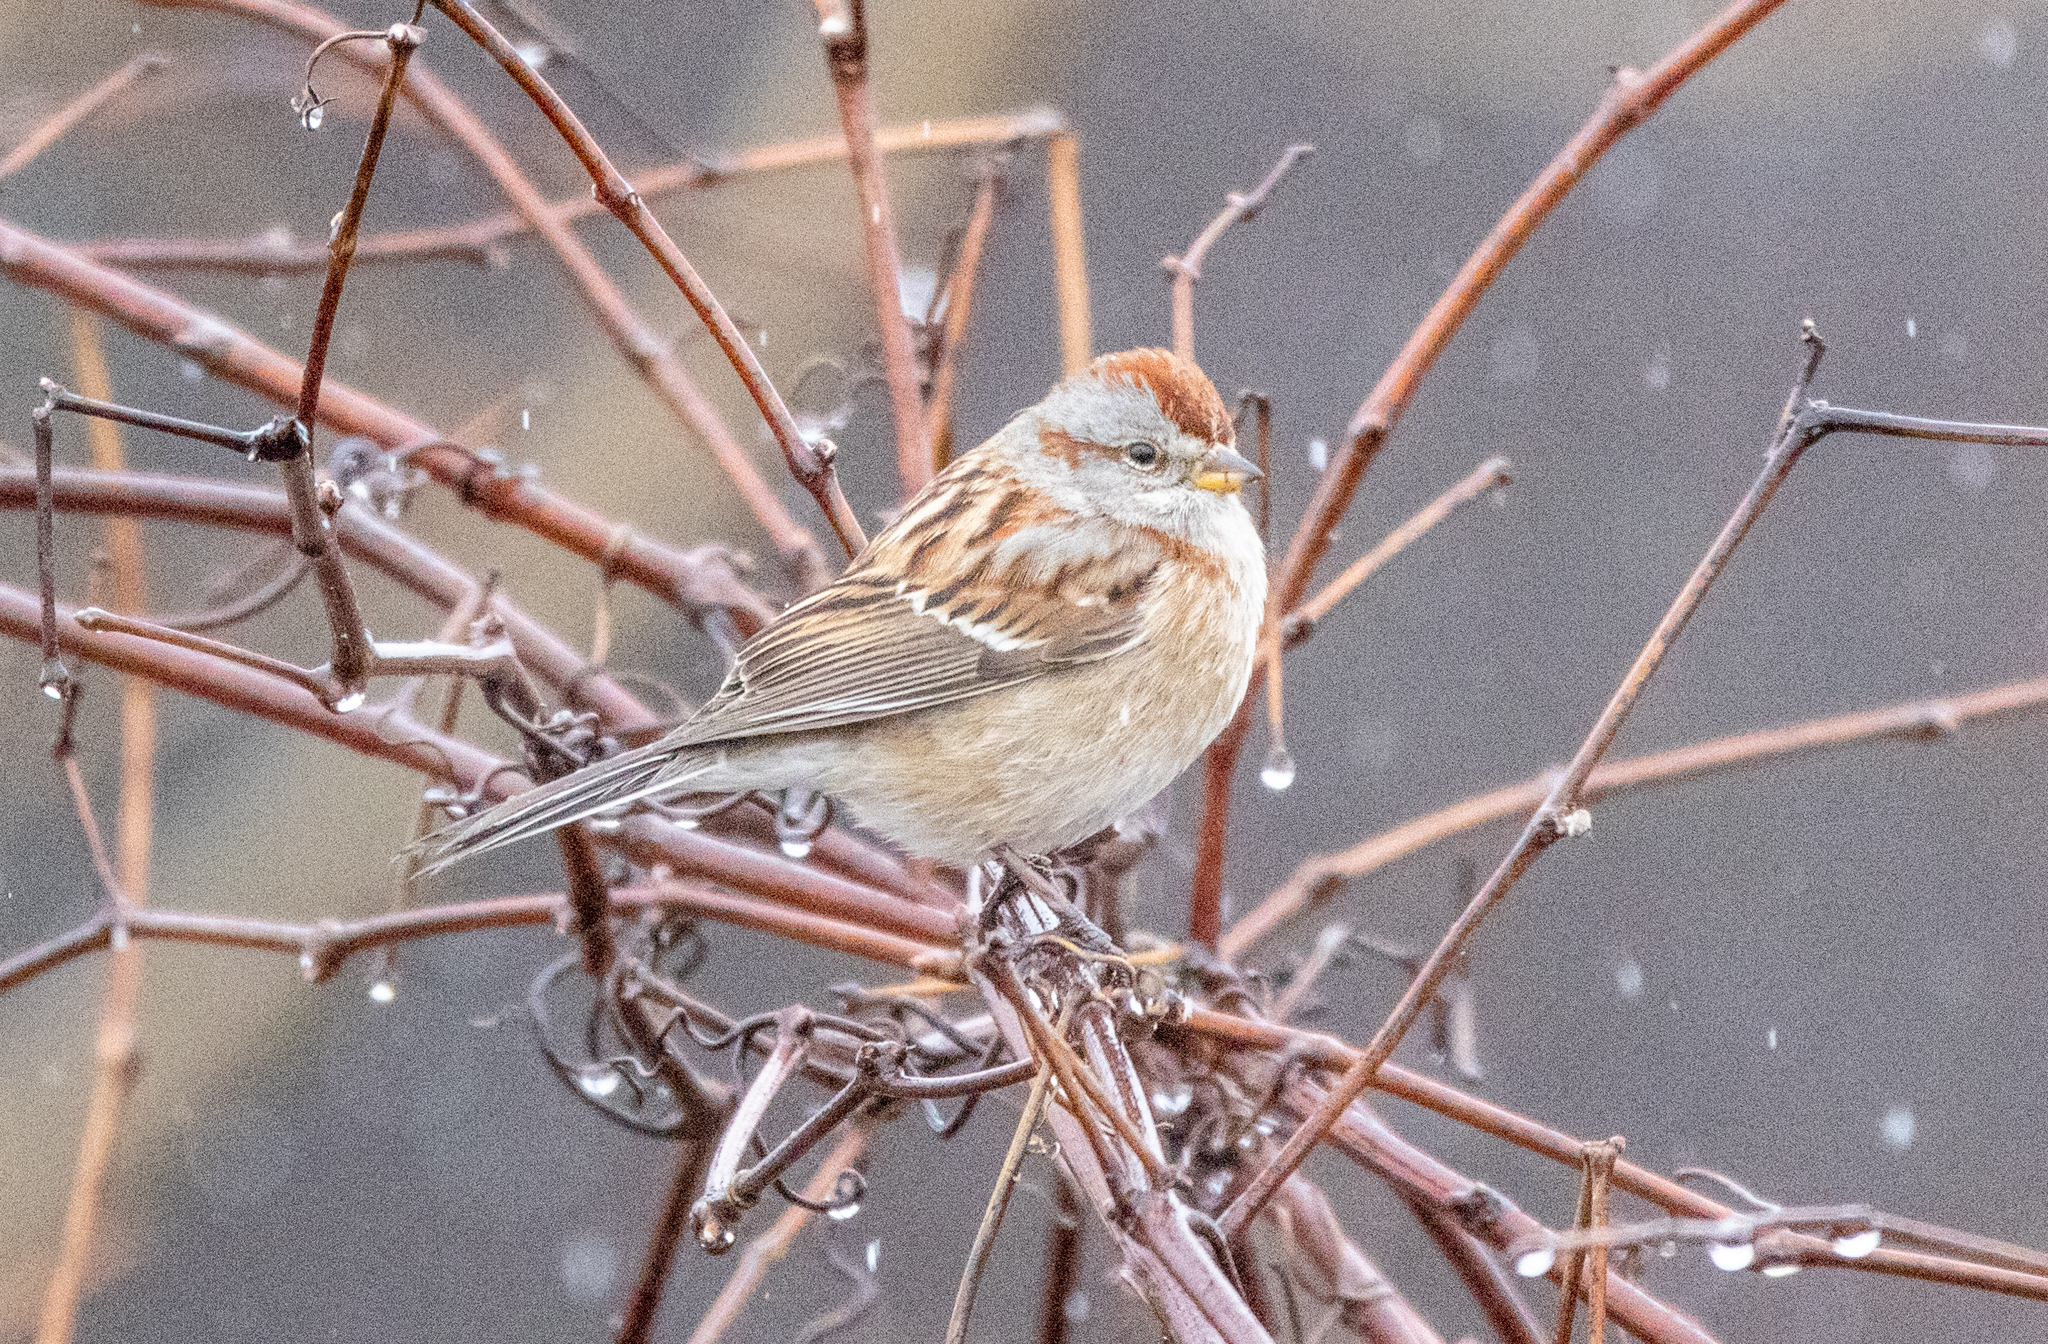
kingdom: Animalia
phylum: Chordata
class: Aves
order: Passeriformes
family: Passerellidae
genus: Spizelloides
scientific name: Spizelloides arborea
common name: American tree sparrow
